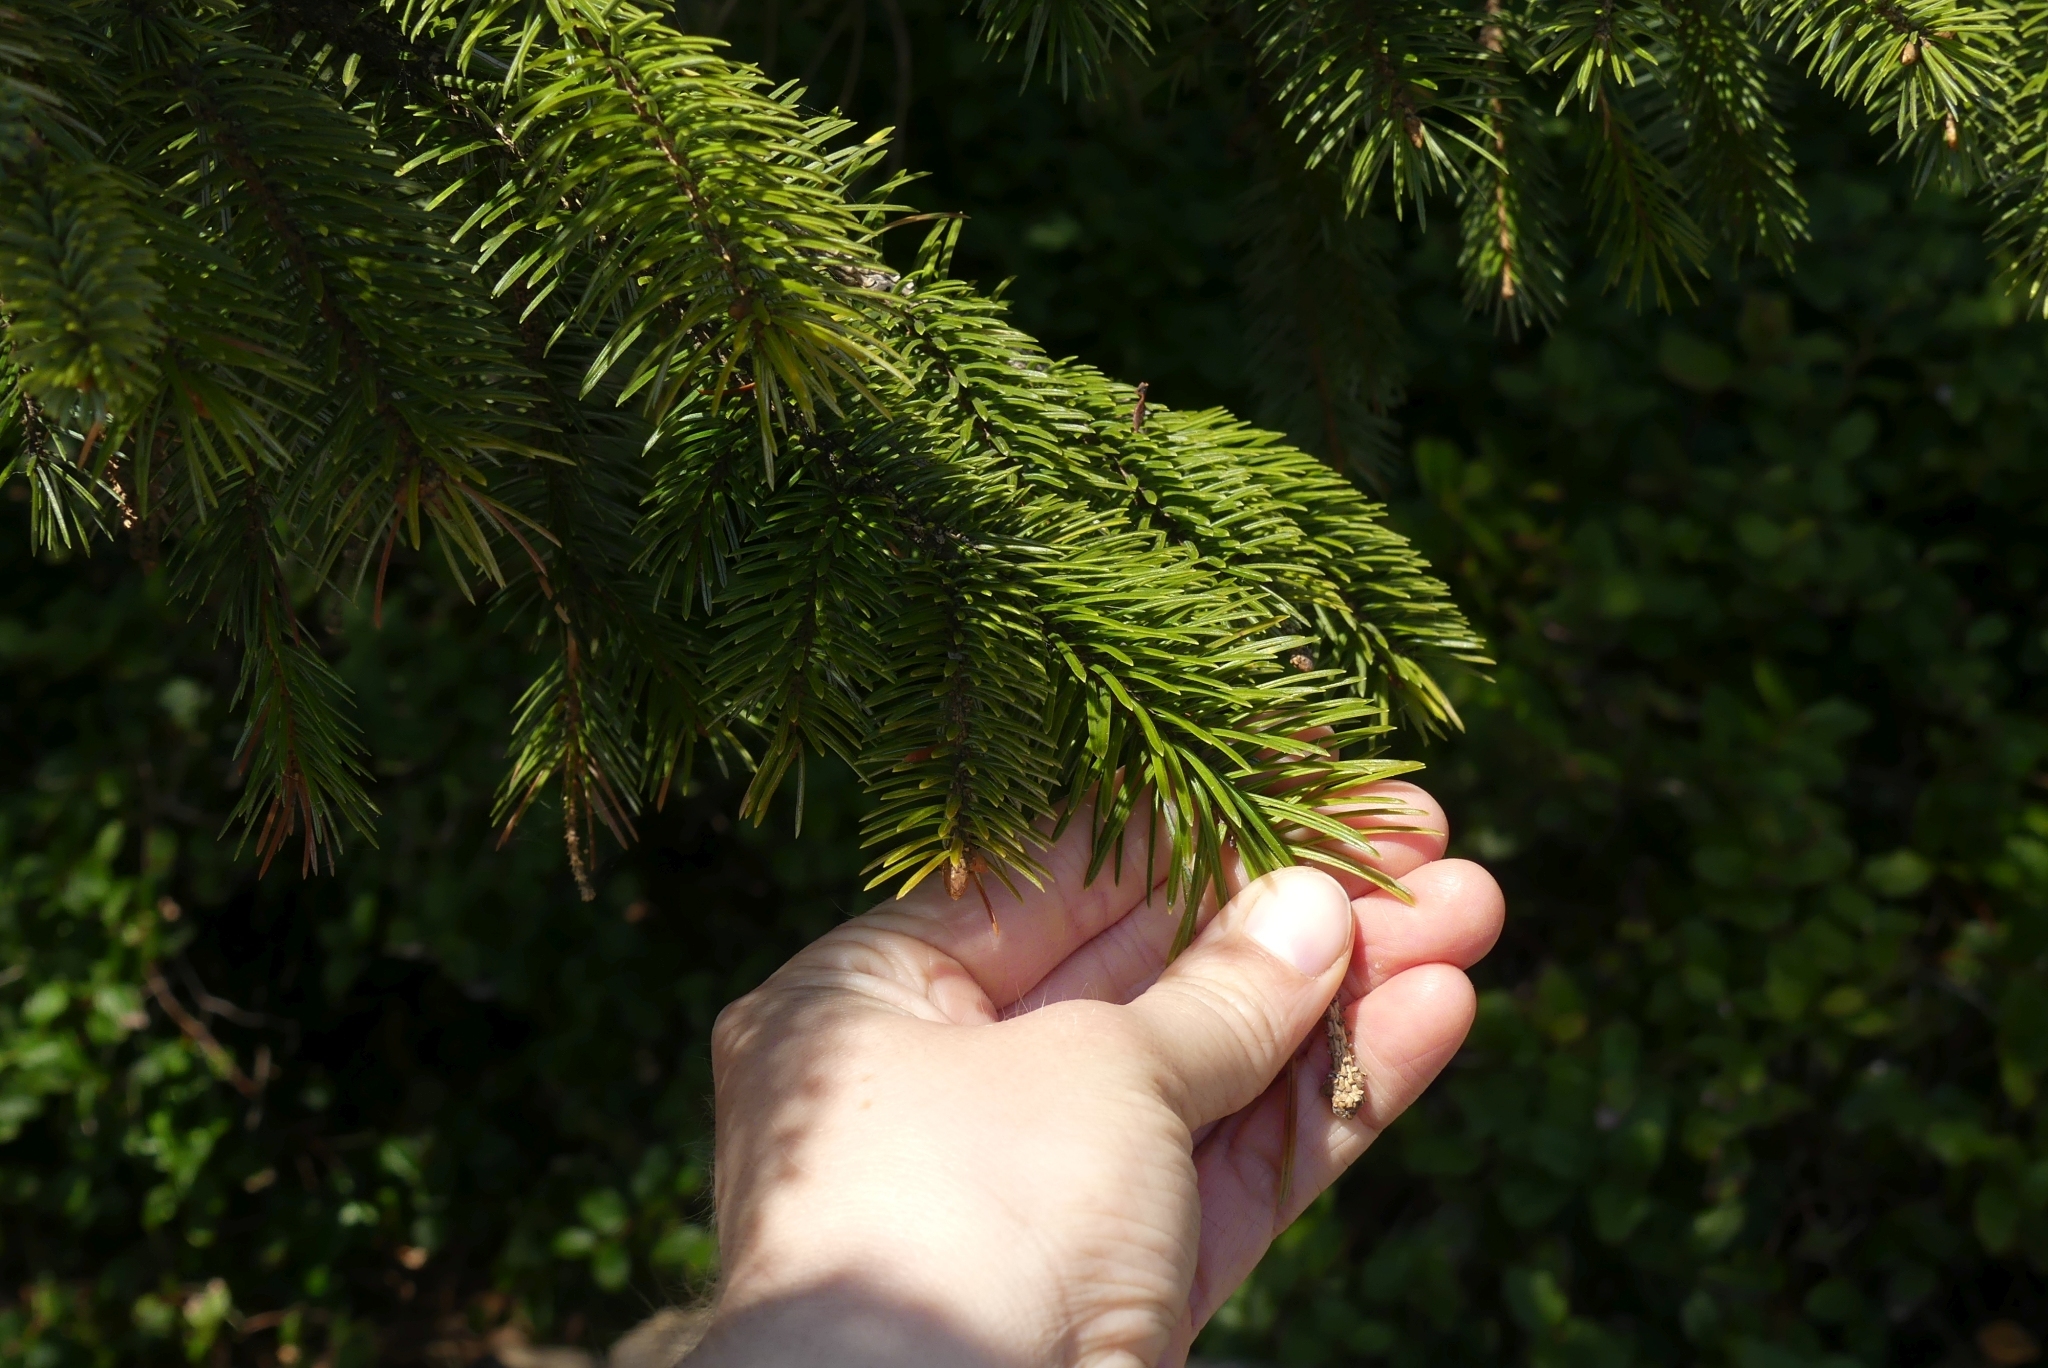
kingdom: Plantae
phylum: Tracheophyta
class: Pinopsida
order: Pinales
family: Pinaceae
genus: Picea
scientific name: Picea sitchensis
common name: Sitka spruce
